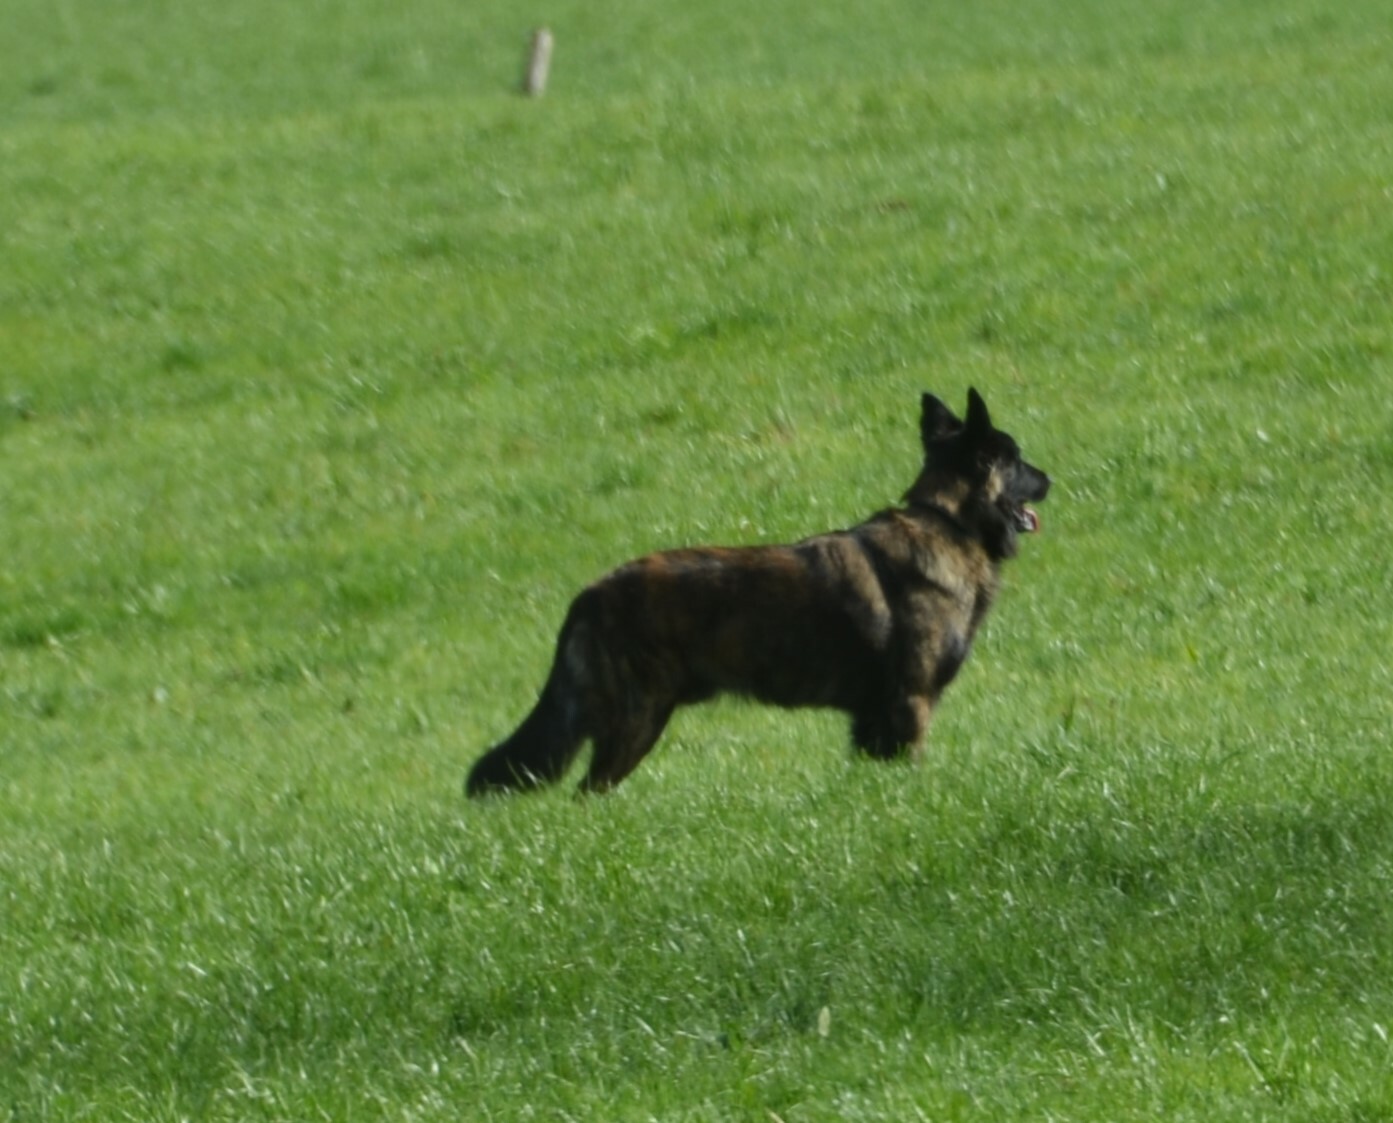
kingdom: Animalia
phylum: Chordata
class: Mammalia
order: Carnivora
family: Canidae
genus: Canis
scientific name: Canis lupus
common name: Gray wolf
